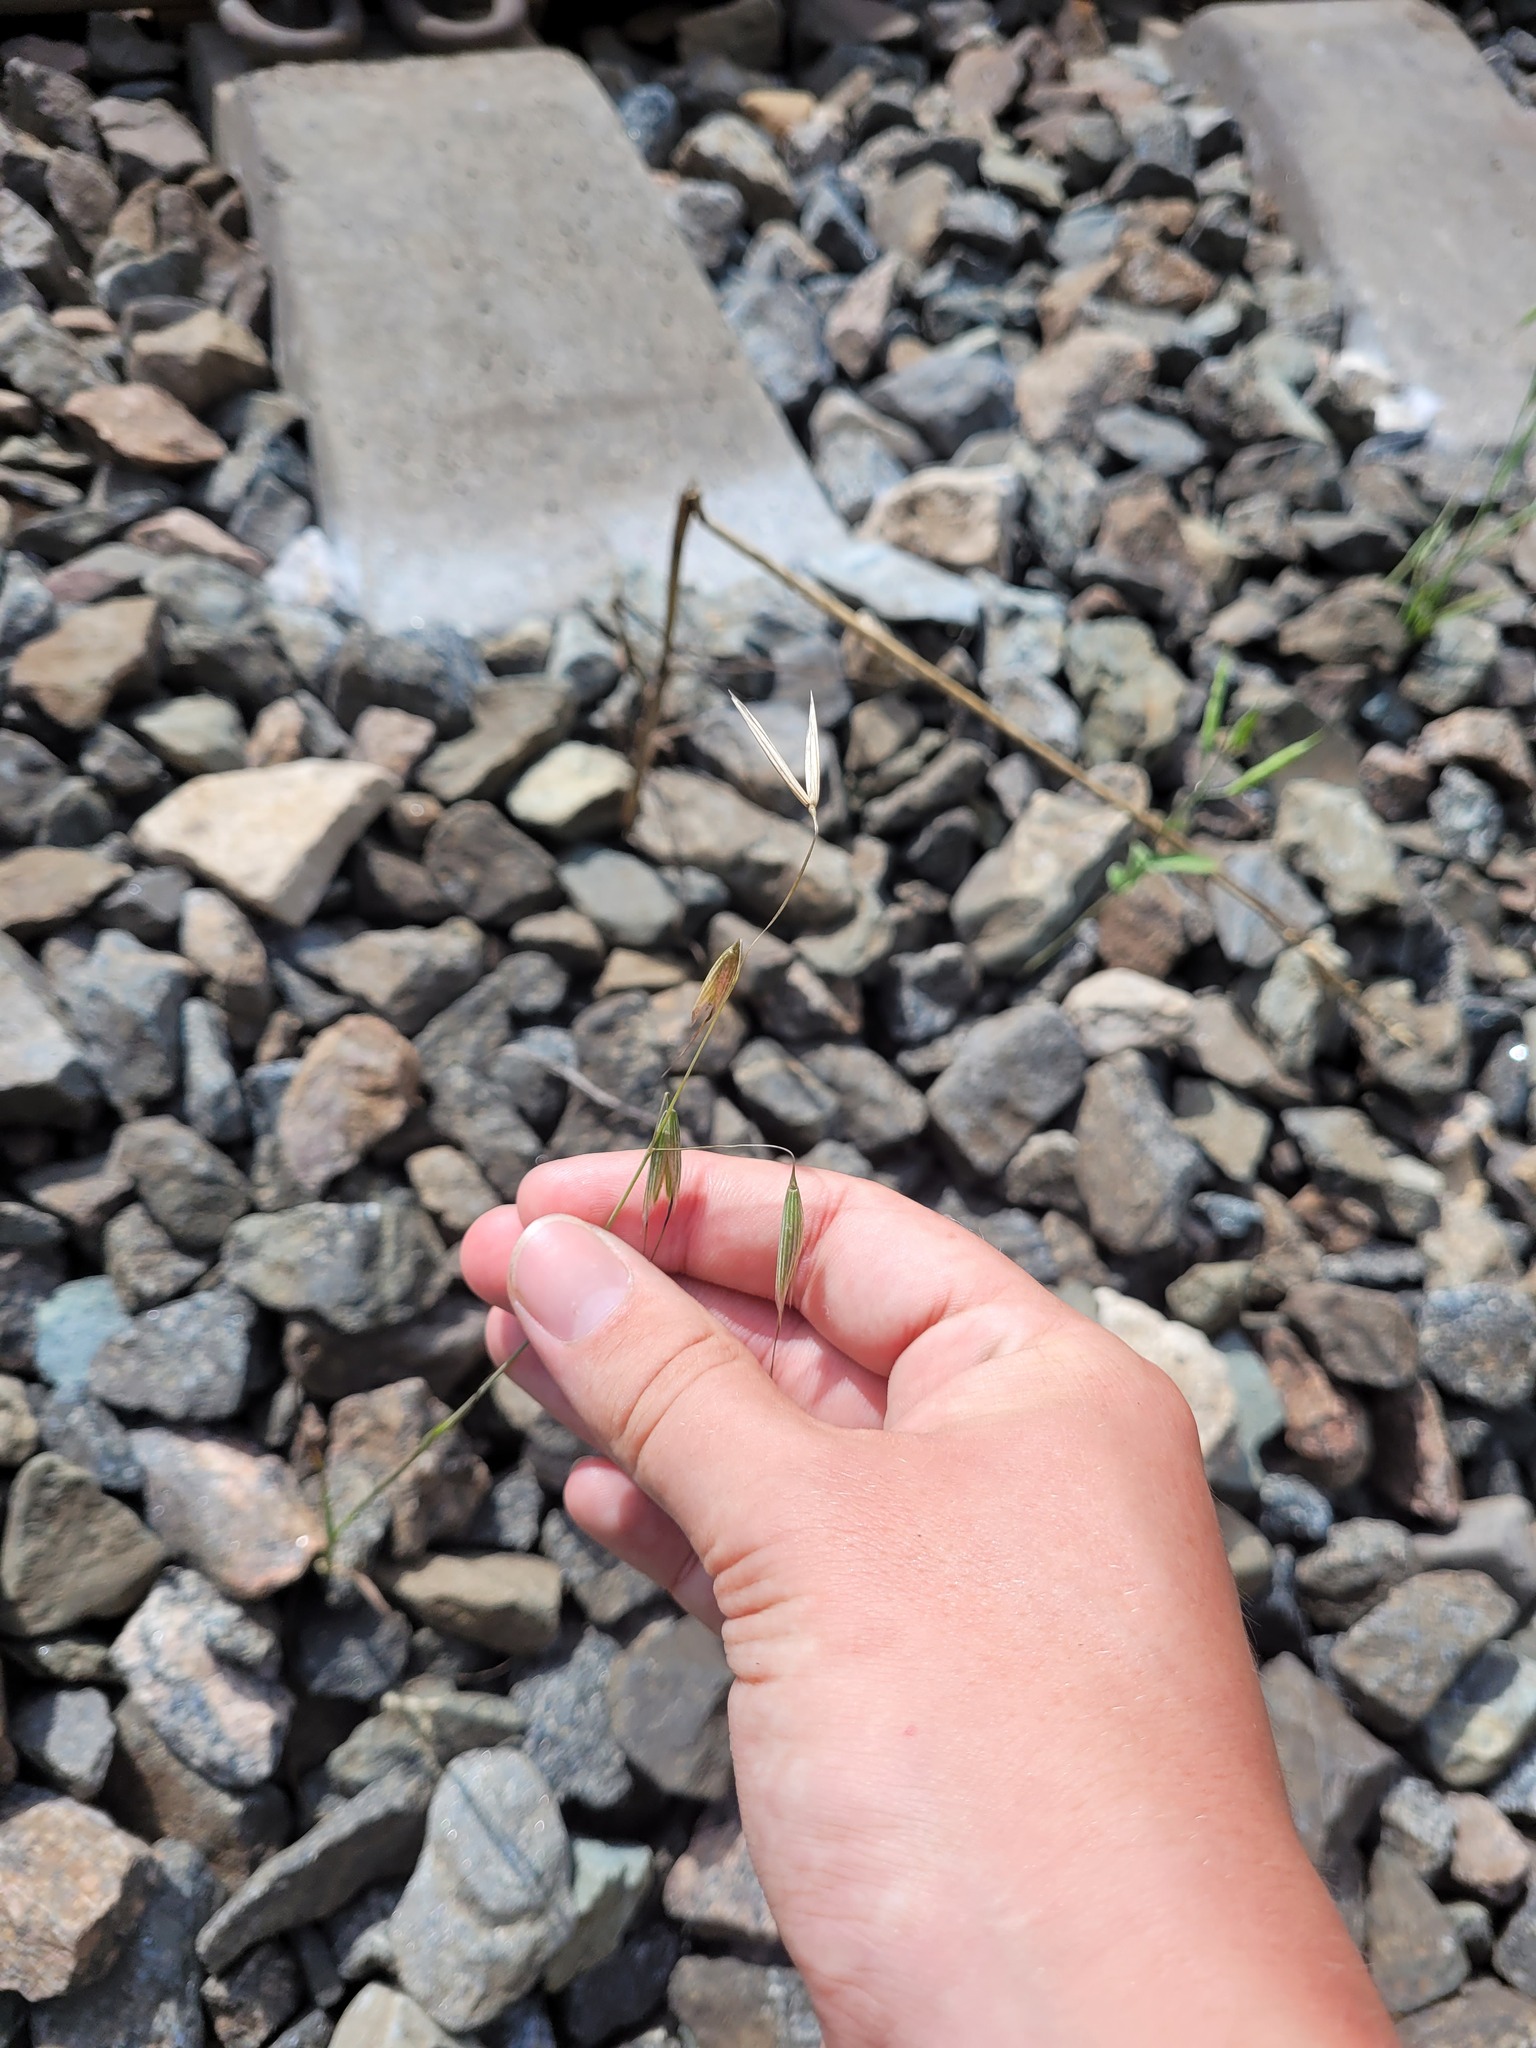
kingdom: Plantae
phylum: Tracheophyta
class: Liliopsida
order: Poales
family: Poaceae
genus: Avena
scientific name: Avena fatua
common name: Wild oat
